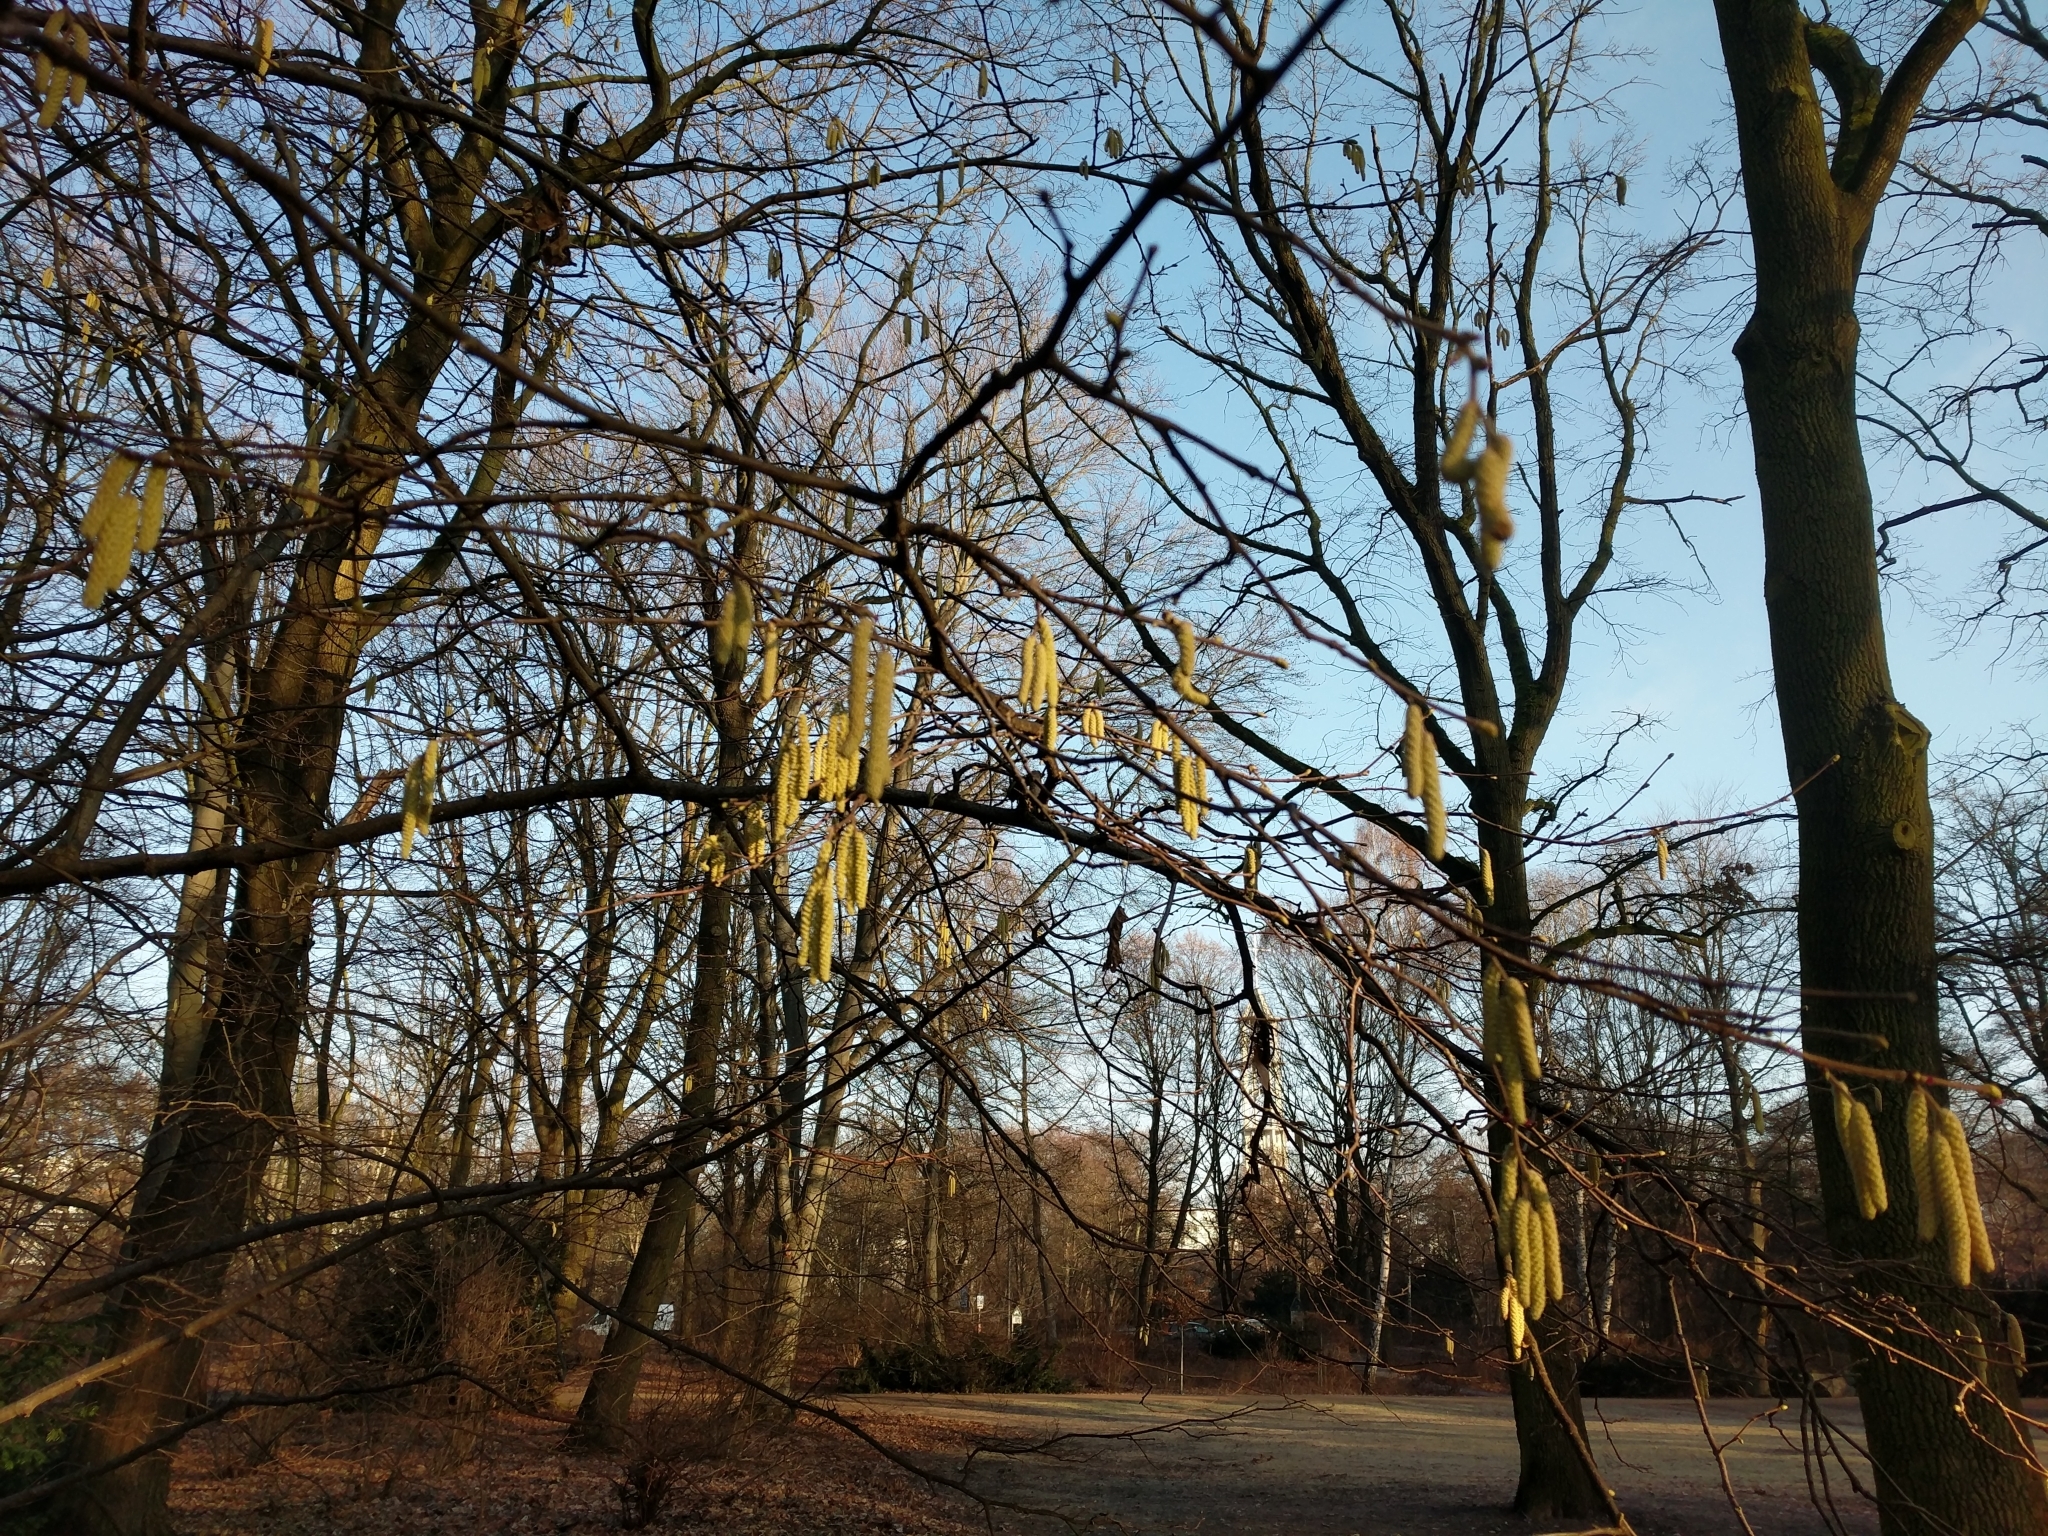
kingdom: Plantae
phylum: Tracheophyta
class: Magnoliopsida
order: Fagales
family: Betulaceae
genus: Corylus
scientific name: Corylus avellana
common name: European hazel
